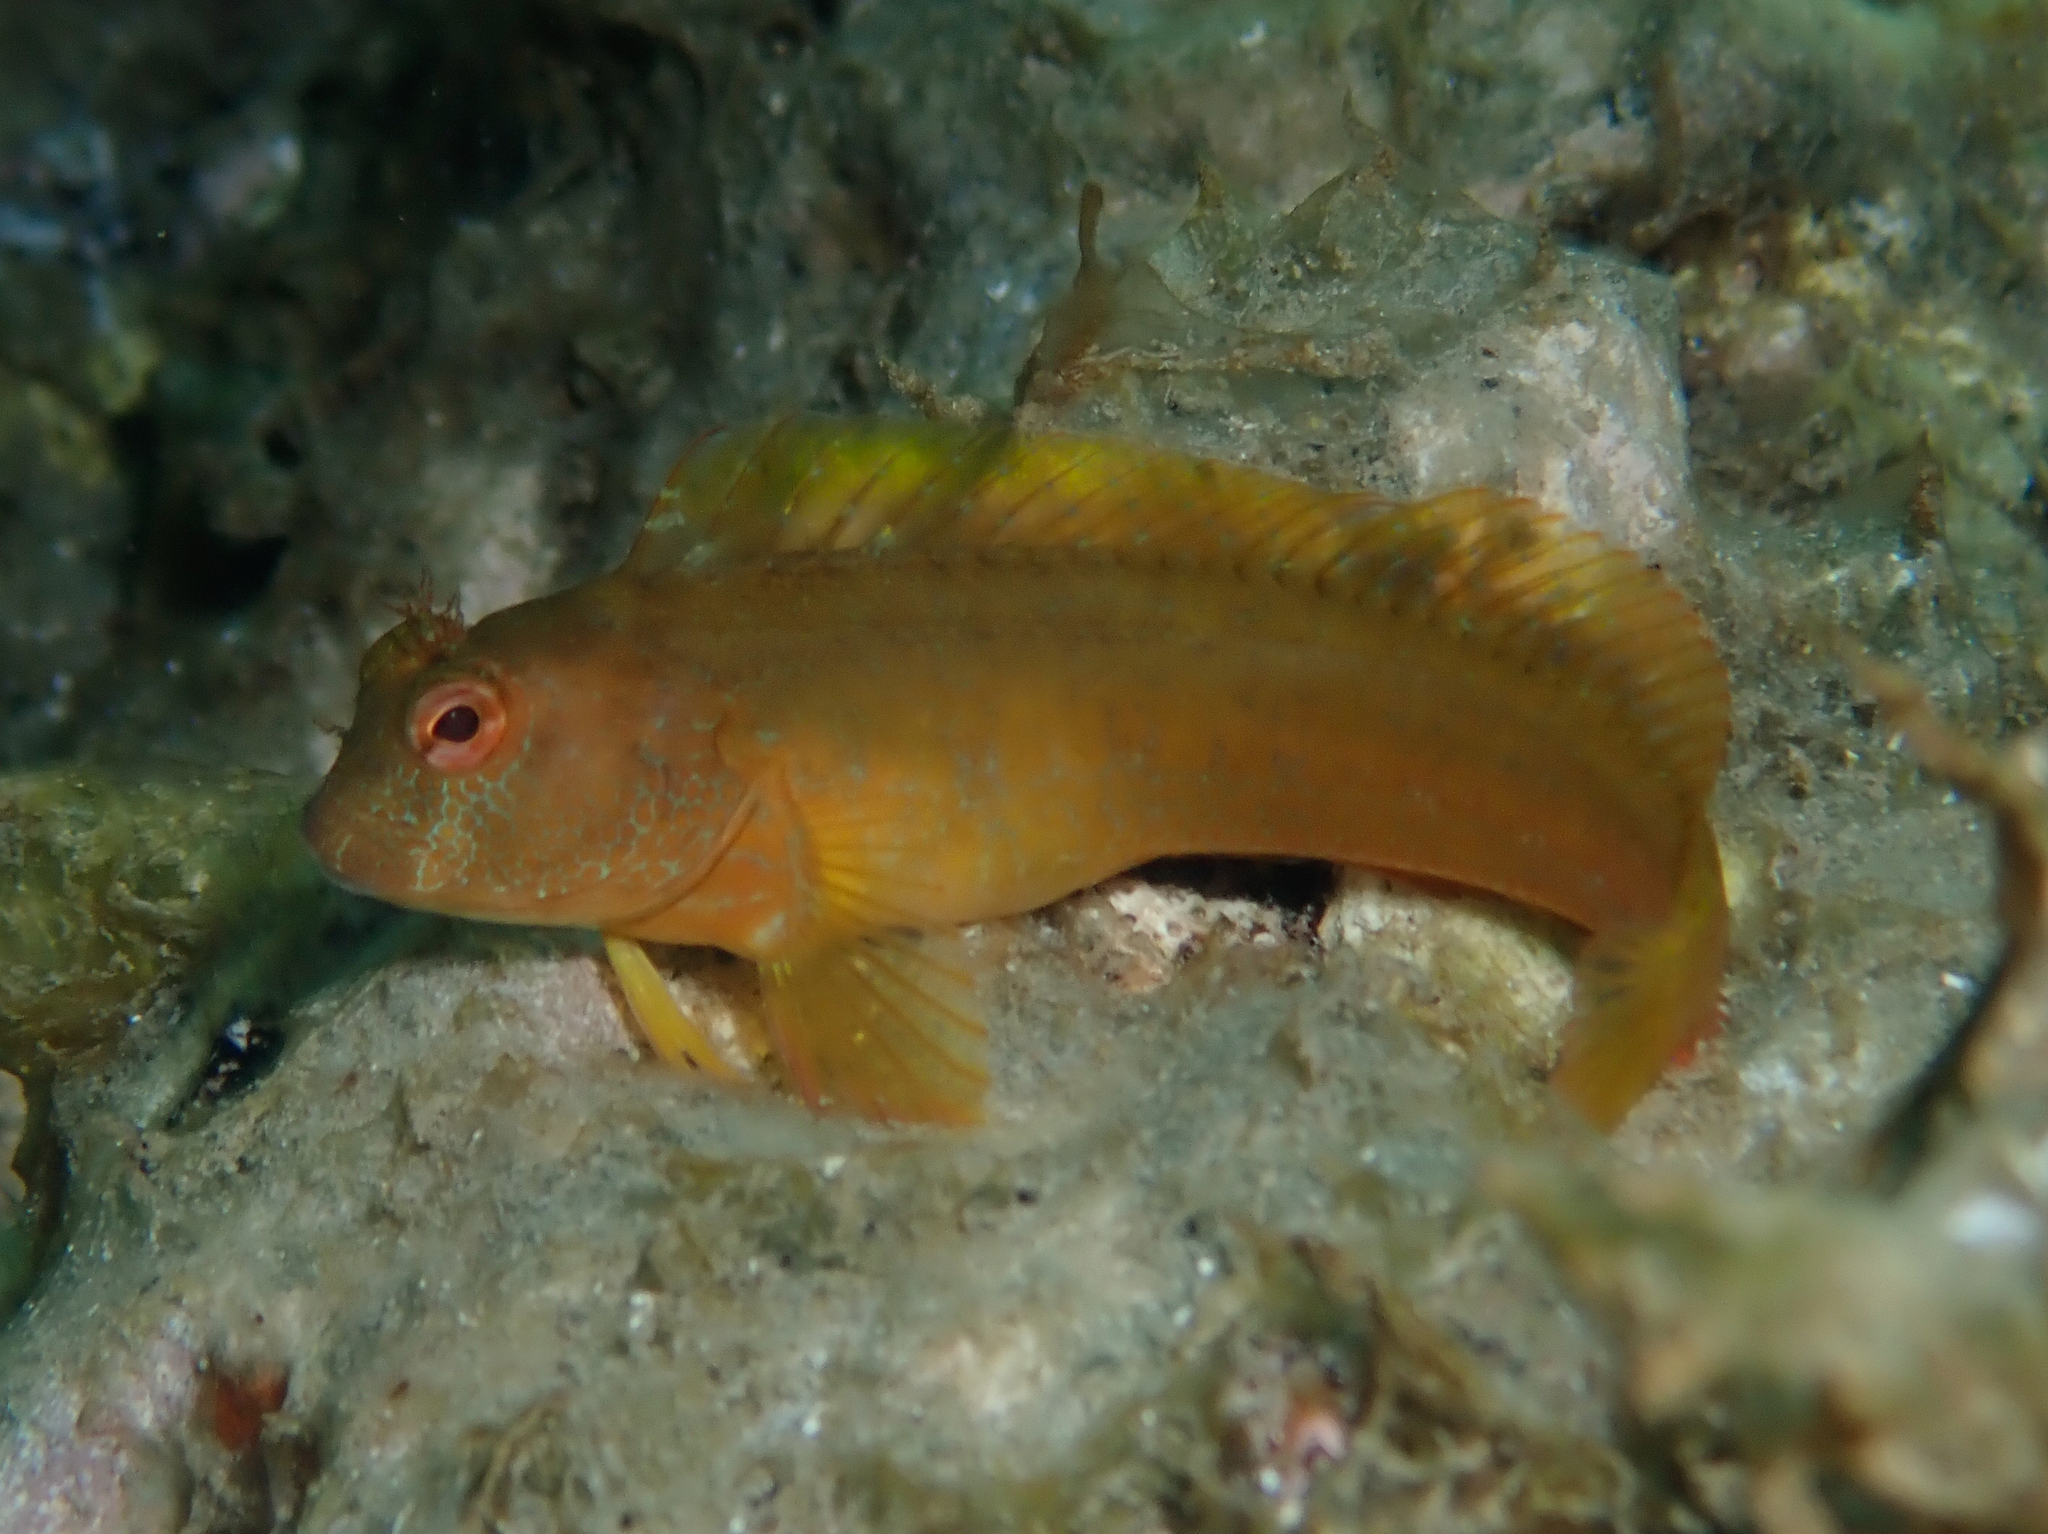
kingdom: Animalia
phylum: Chordata
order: Perciformes
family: Blenniidae
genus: Parablennius
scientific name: Parablennius pilicornis
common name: Ringneck blenny
